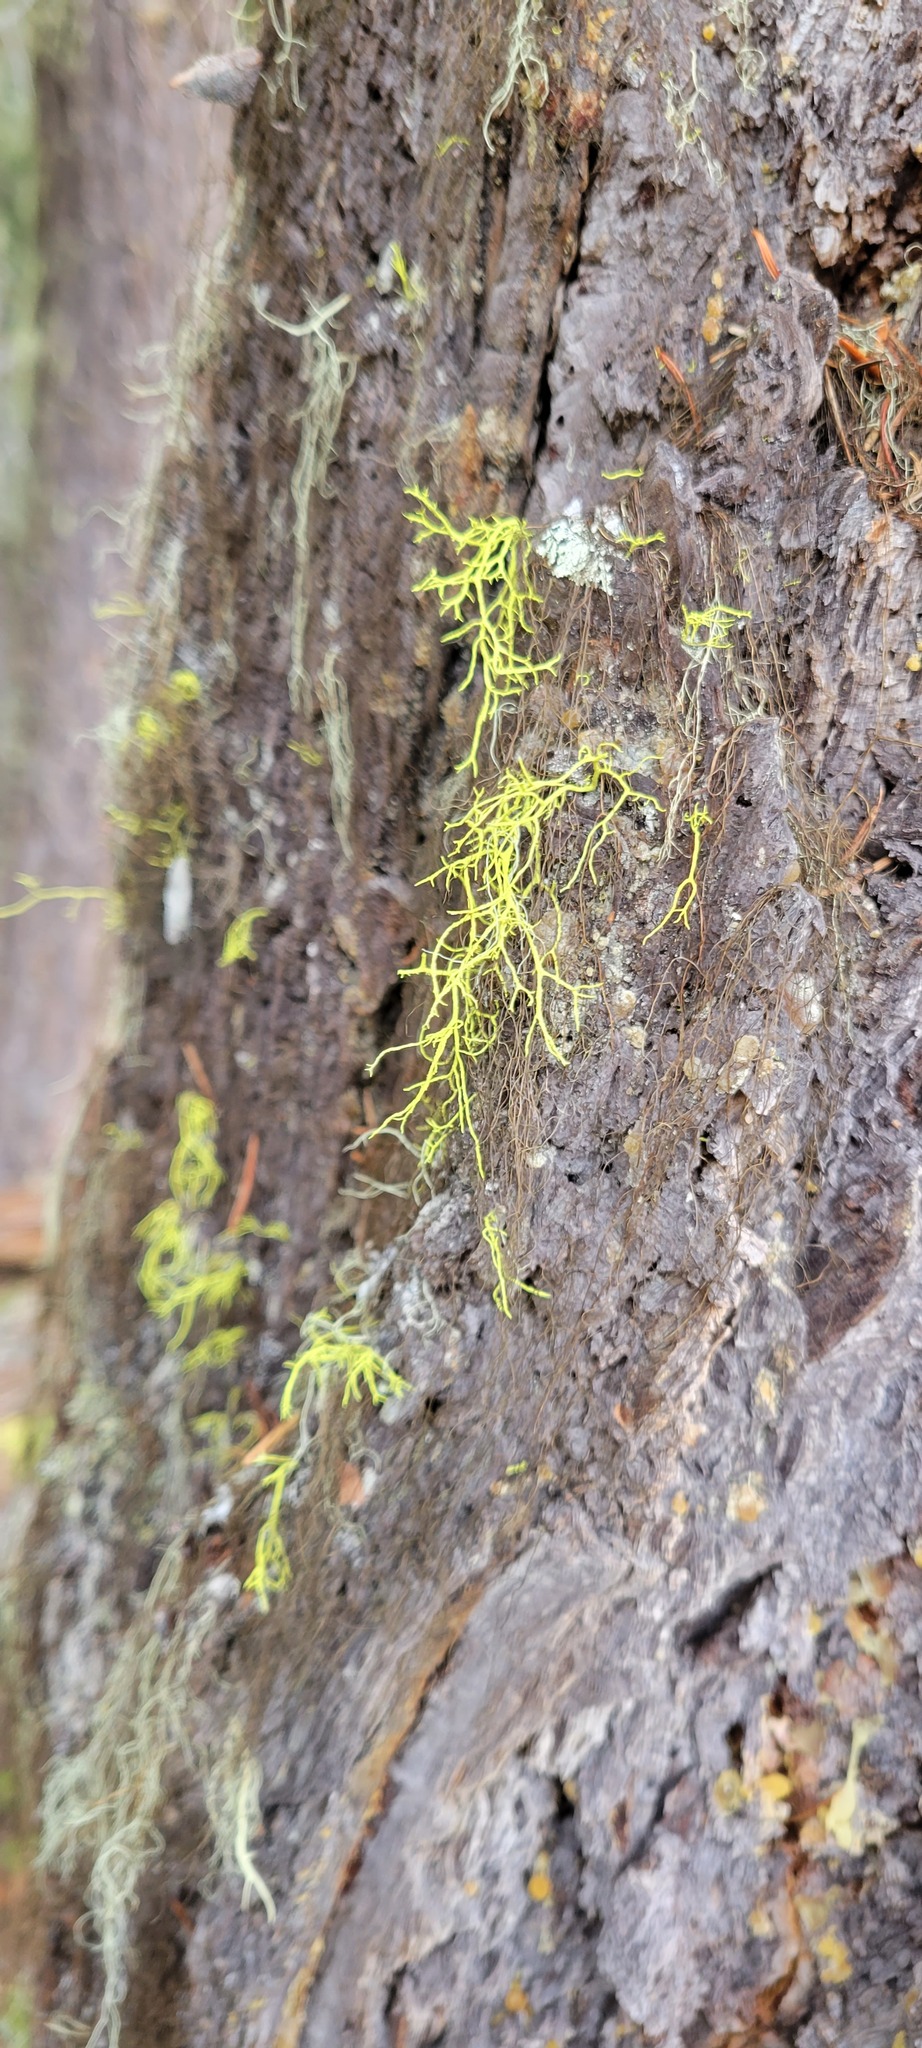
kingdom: Fungi
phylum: Ascomycota
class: Lecanoromycetes
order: Lecanorales
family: Parmeliaceae
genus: Letharia
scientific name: Letharia lupina
